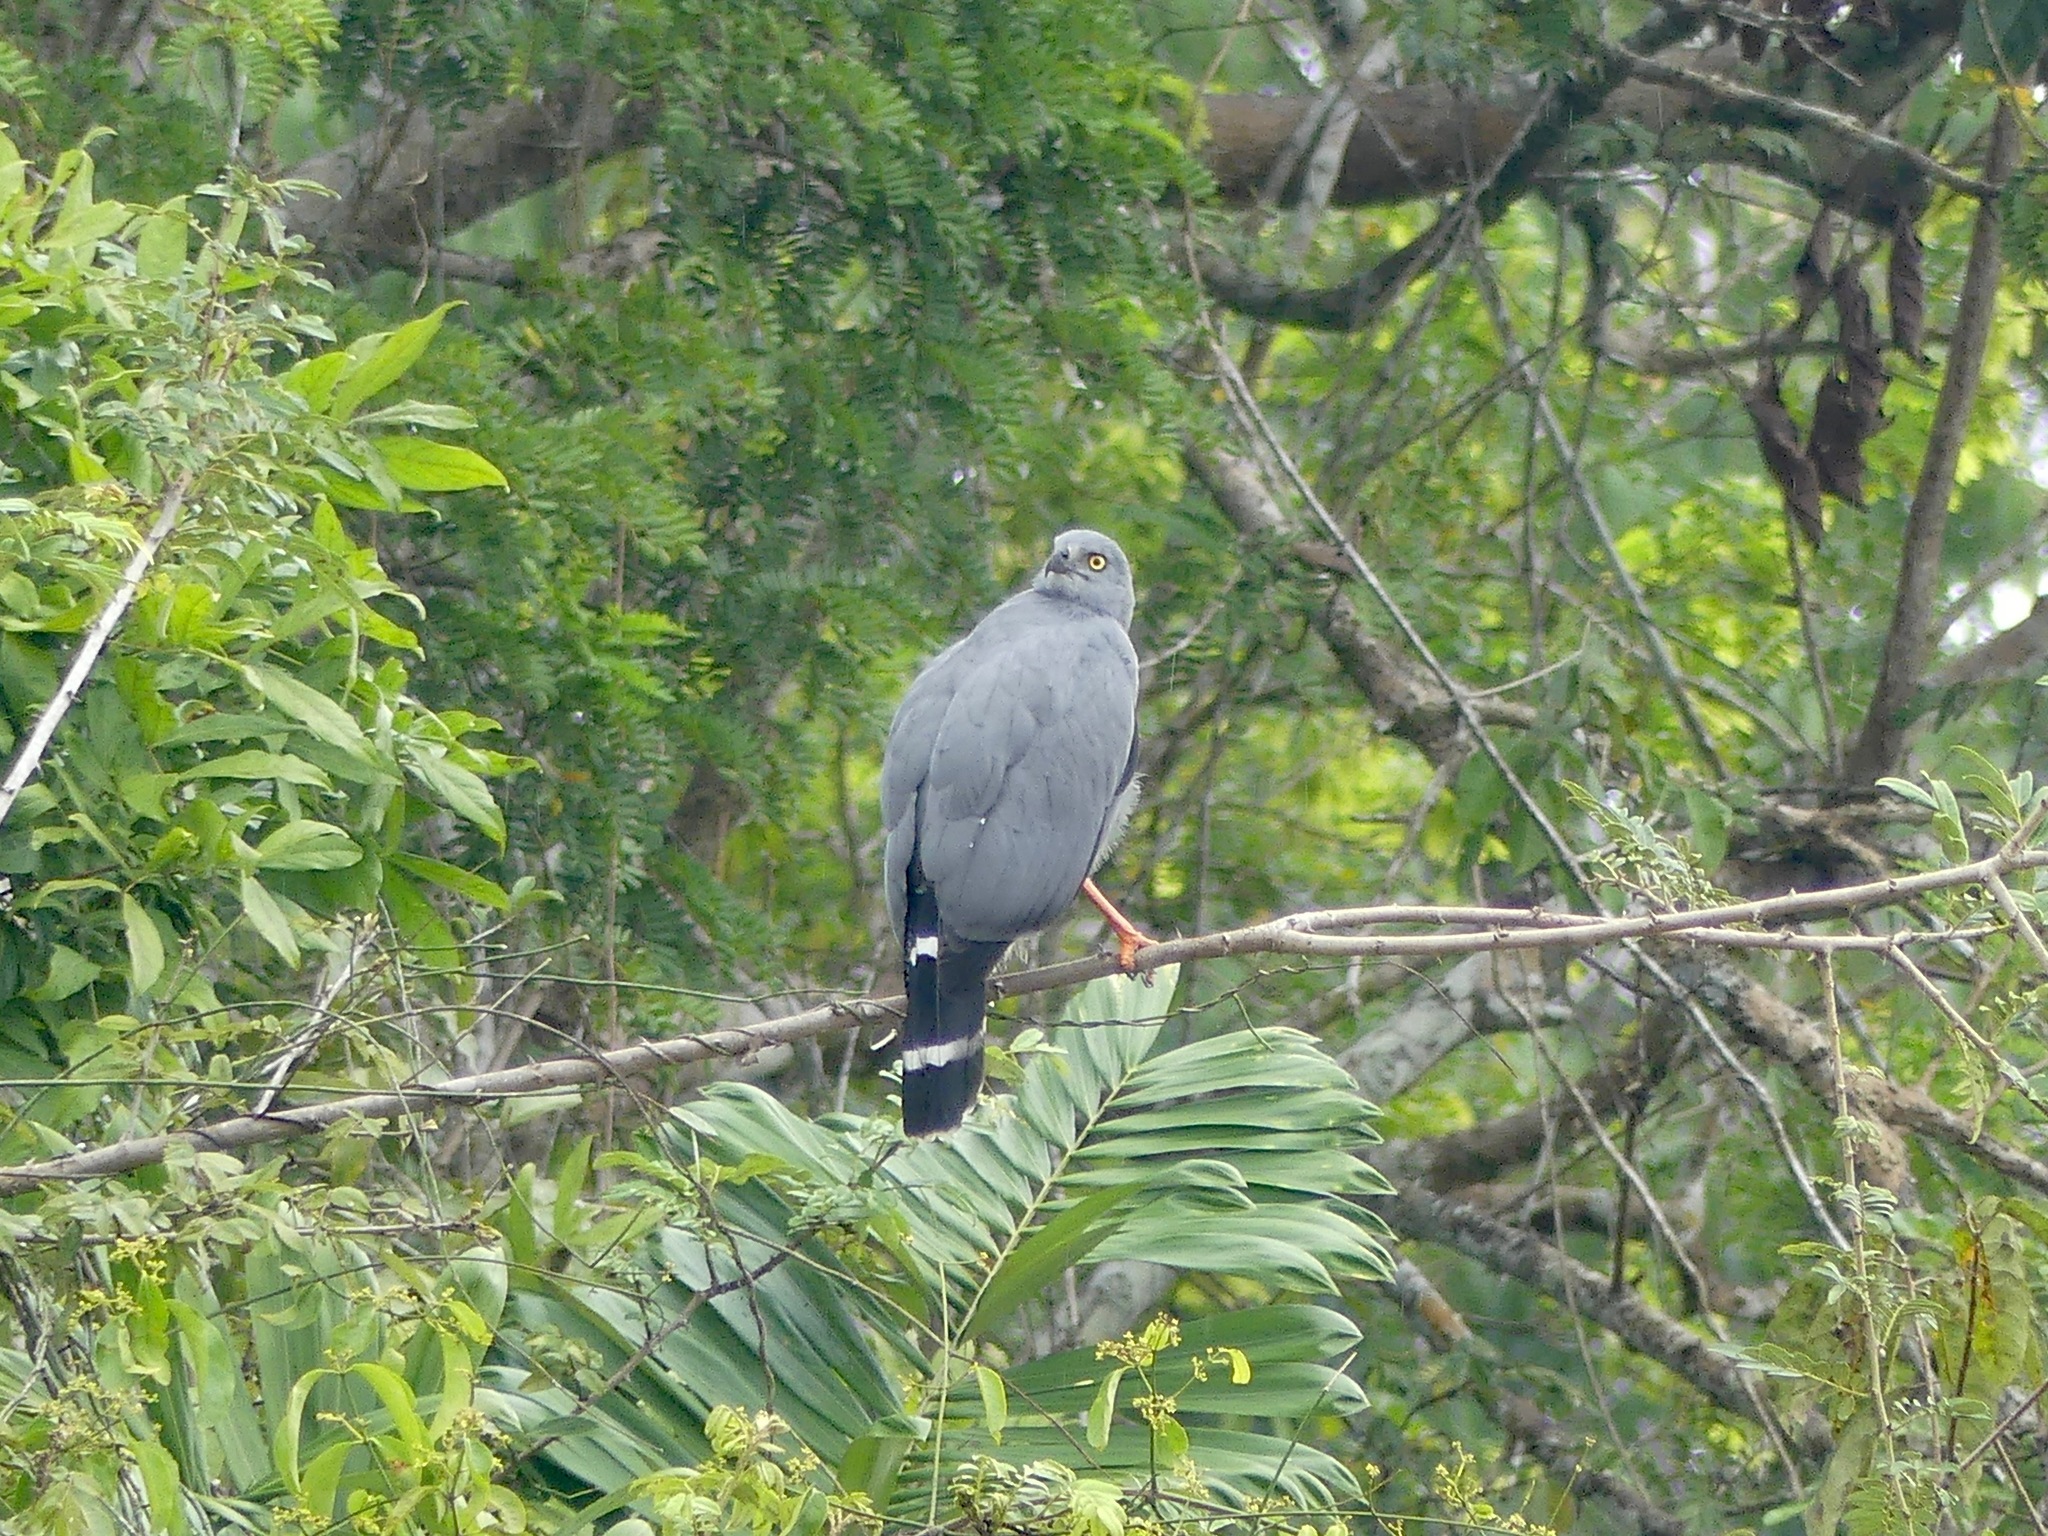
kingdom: Animalia
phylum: Chordata
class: Aves
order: Accipitriformes
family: Accipitridae
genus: Geranospiza
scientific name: Geranospiza caerulescens
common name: Crane hawk
